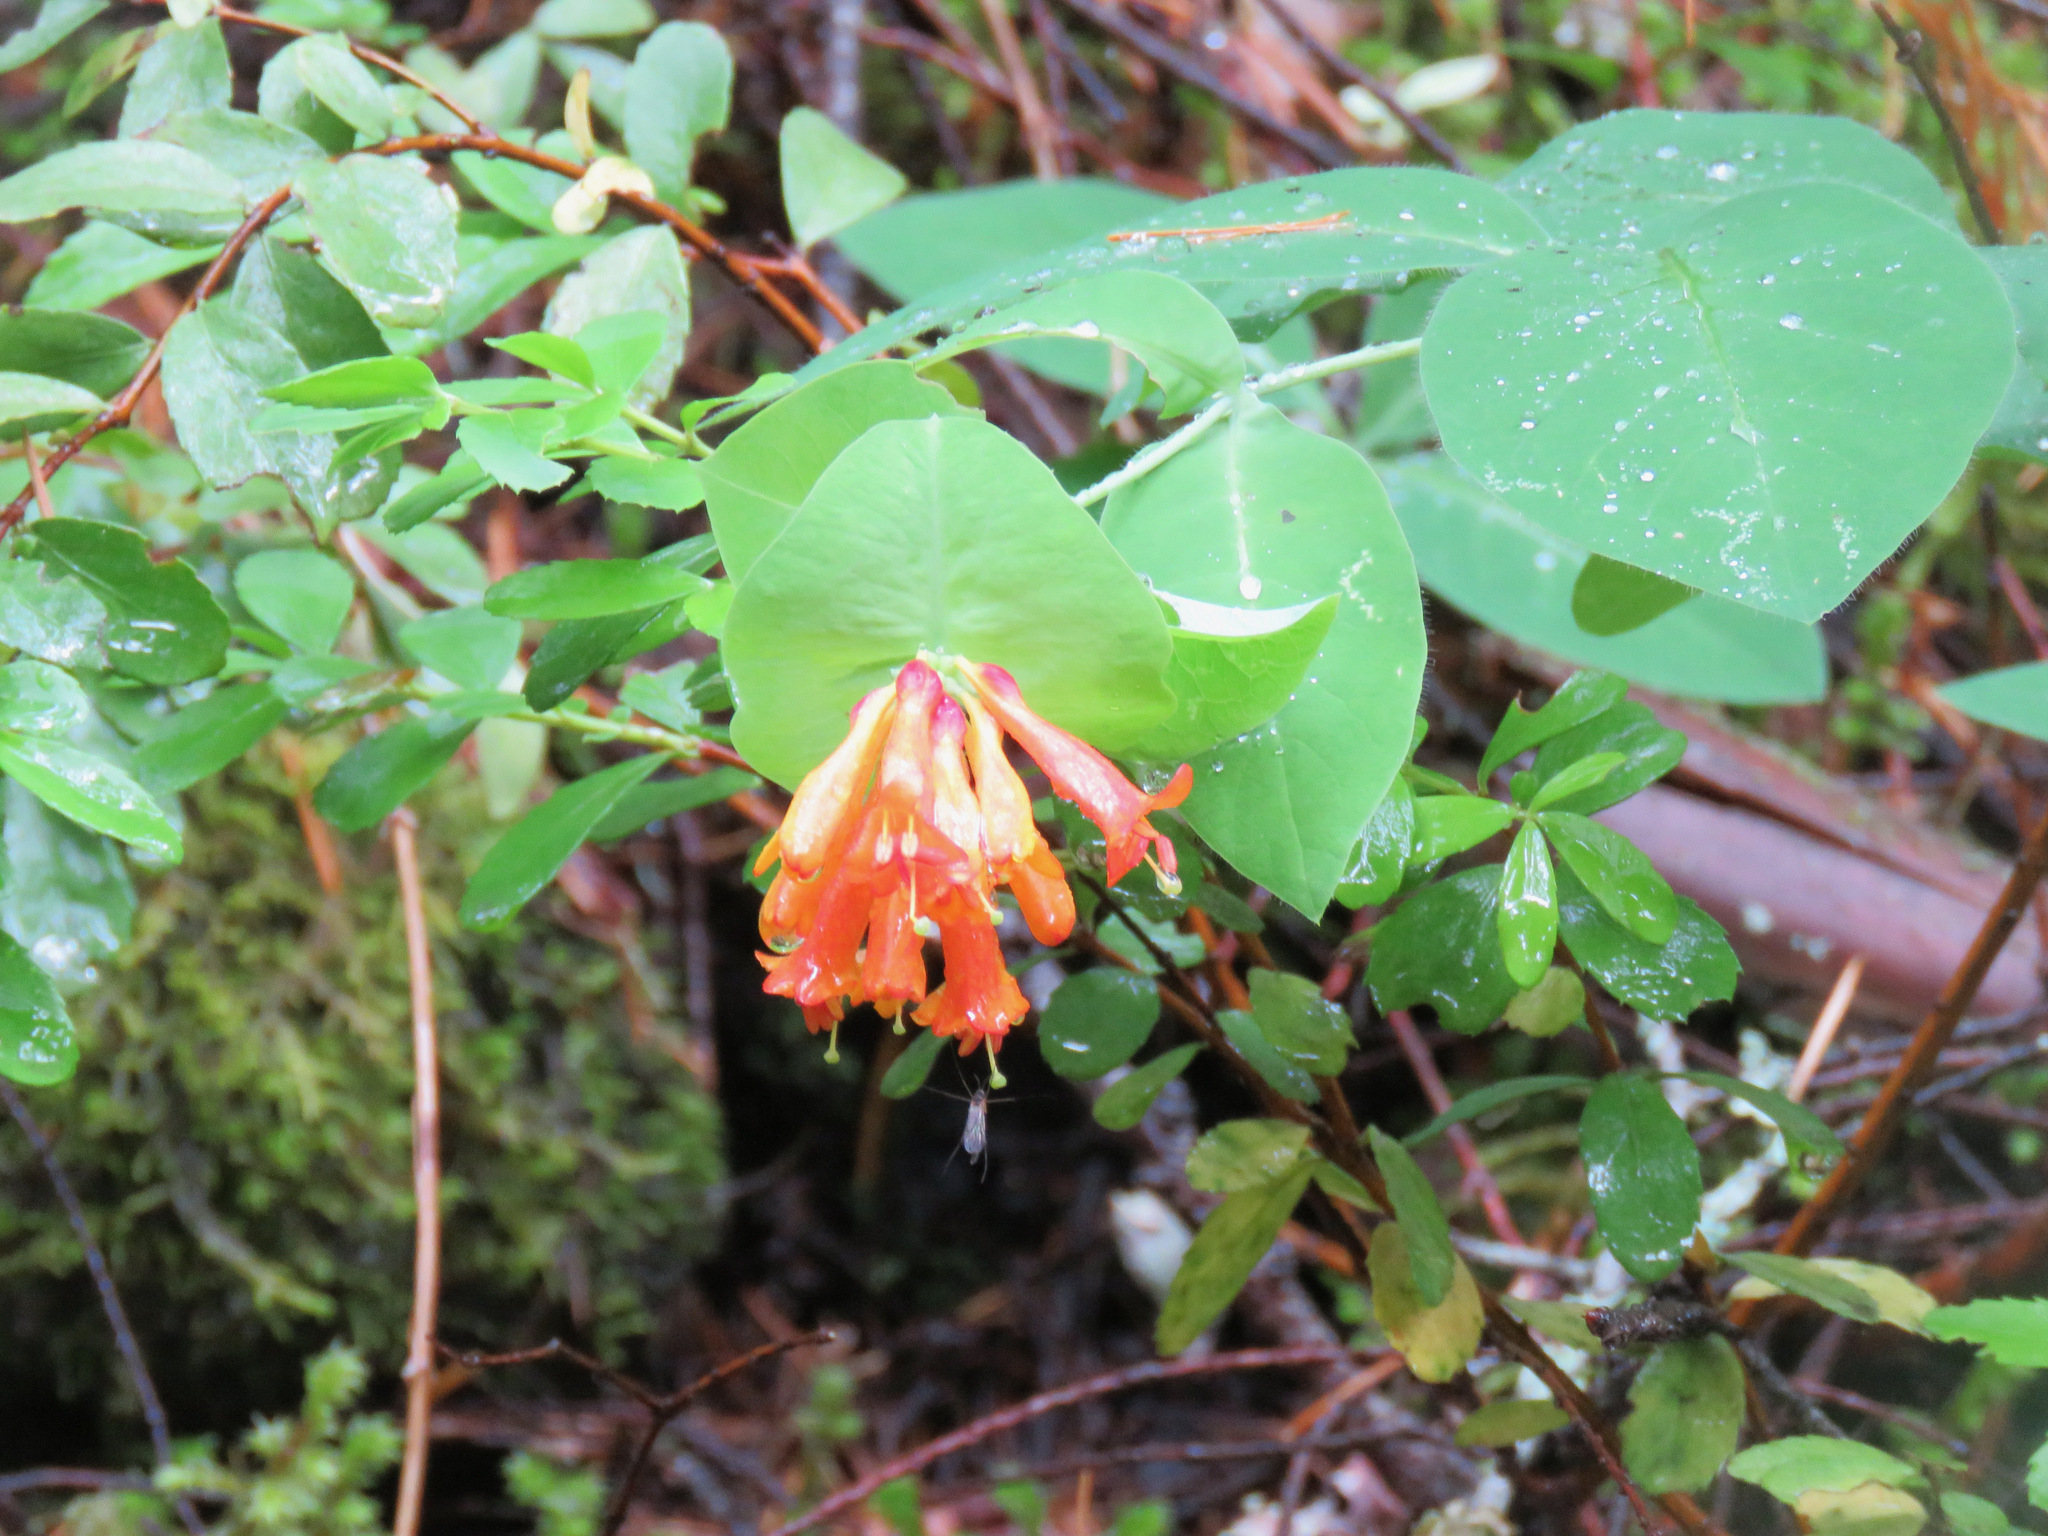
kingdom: Plantae
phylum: Tracheophyta
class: Magnoliopsida
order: Dipsacales
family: Caprifoliaceae
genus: Lonicera
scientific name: Lonicera ciliosa
